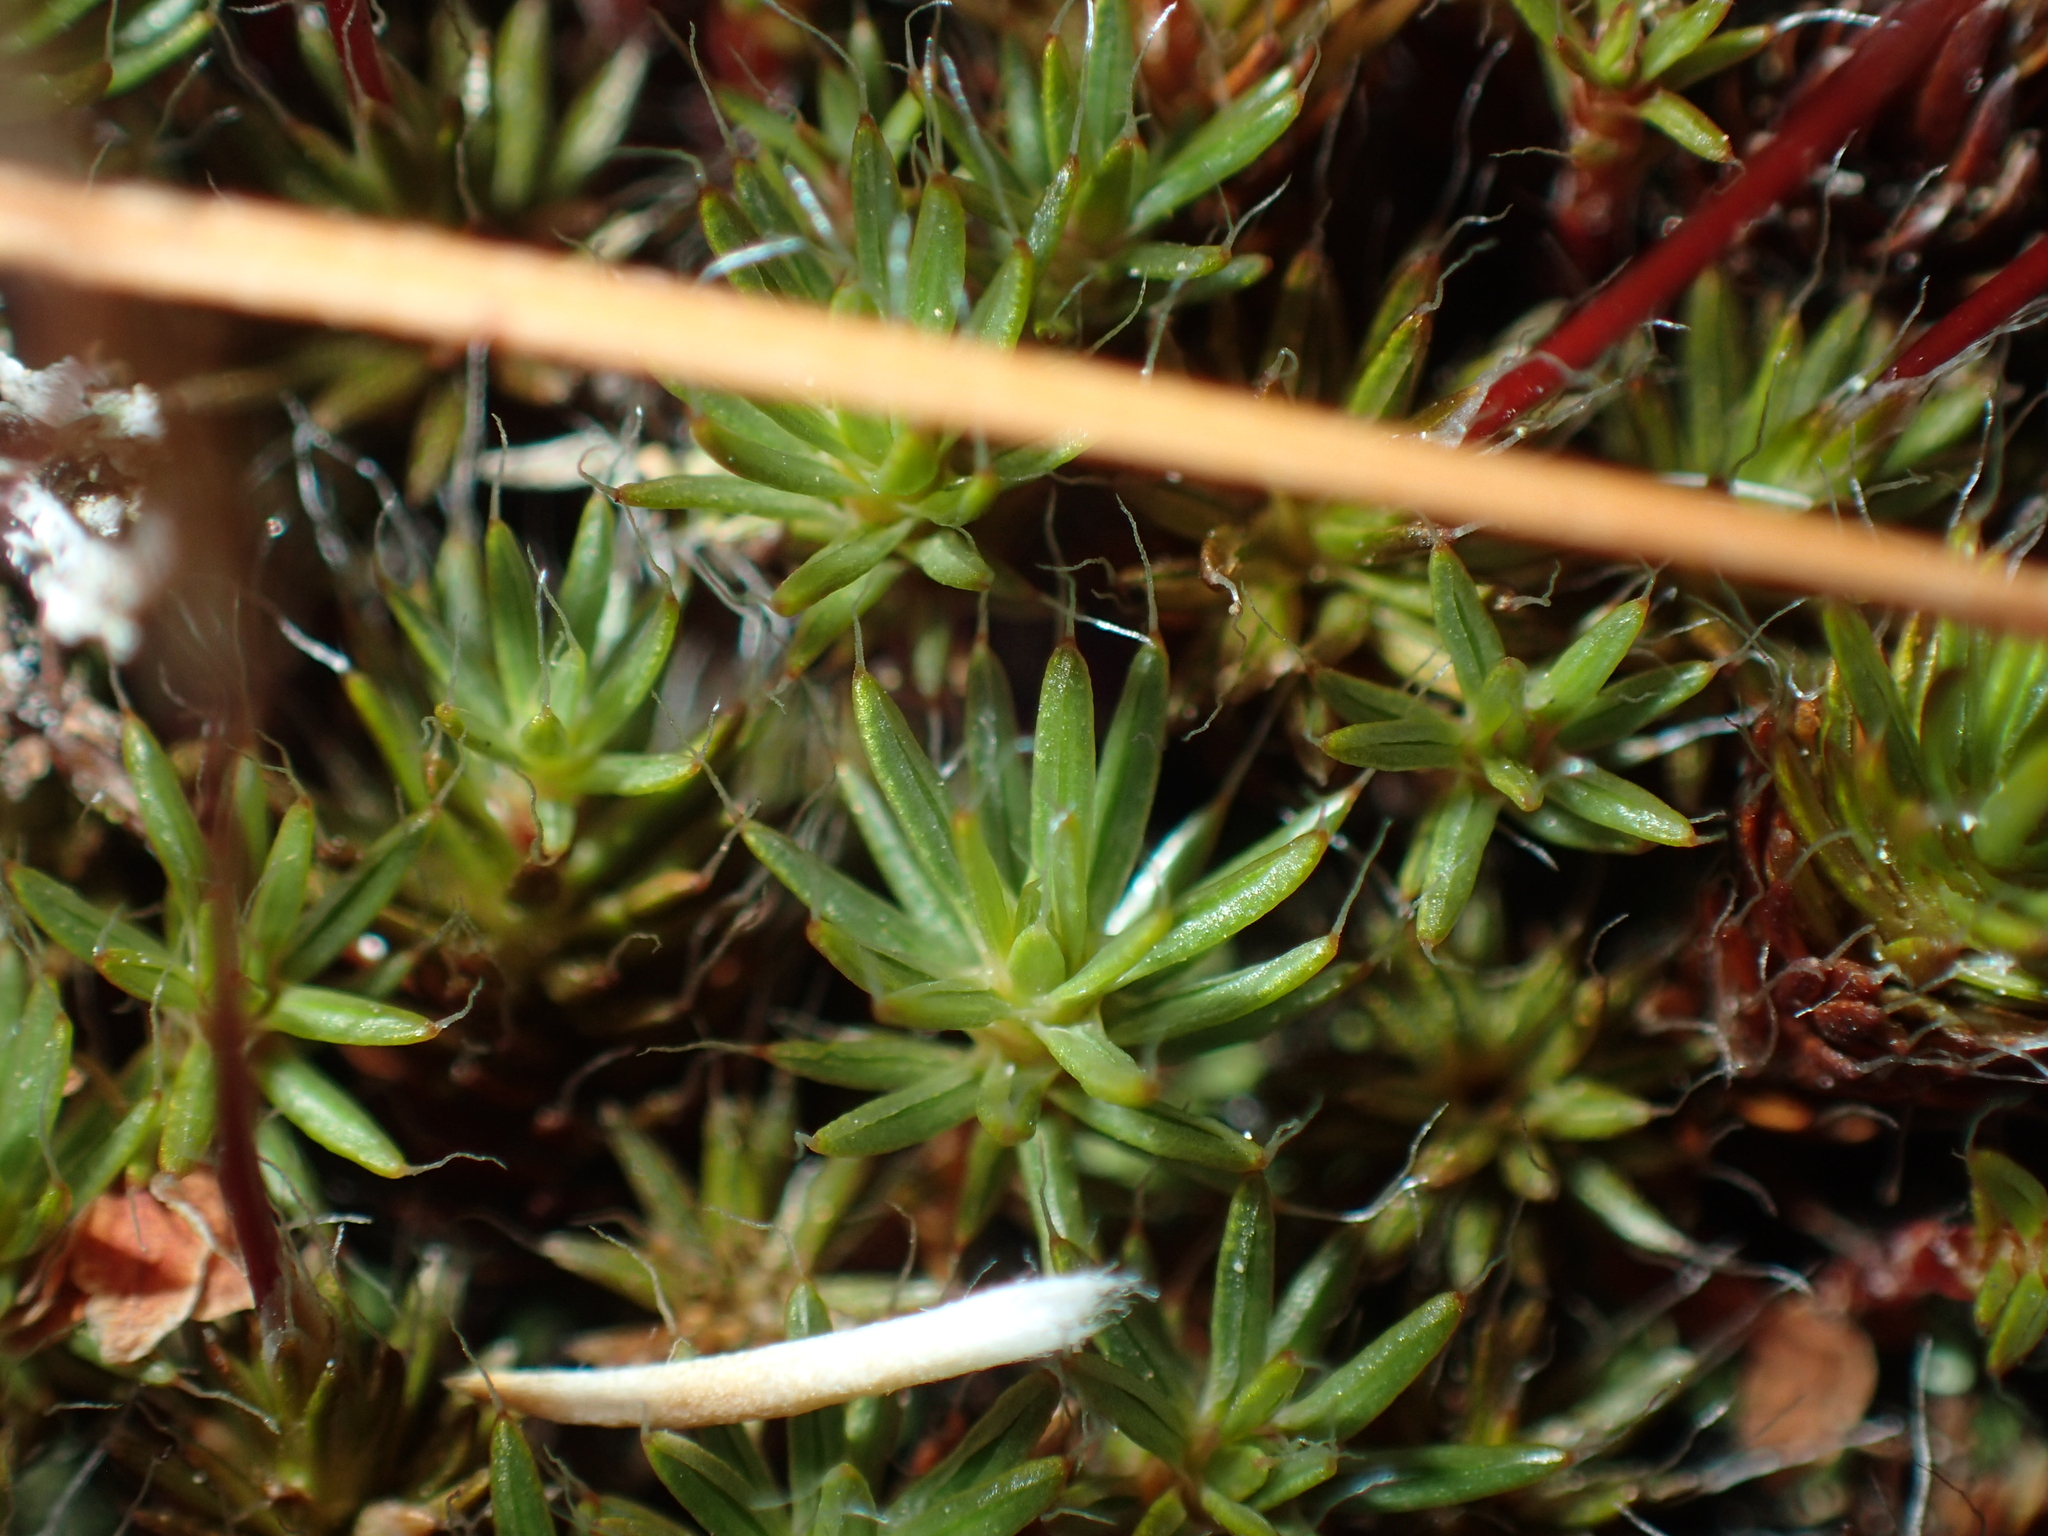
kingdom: Plantae
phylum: Bryophyta
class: Polytrichopsida
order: Polytrichales
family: Polytrichaceae
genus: Polytrichum
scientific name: Polytrichum piliferum
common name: Bristly haircap
